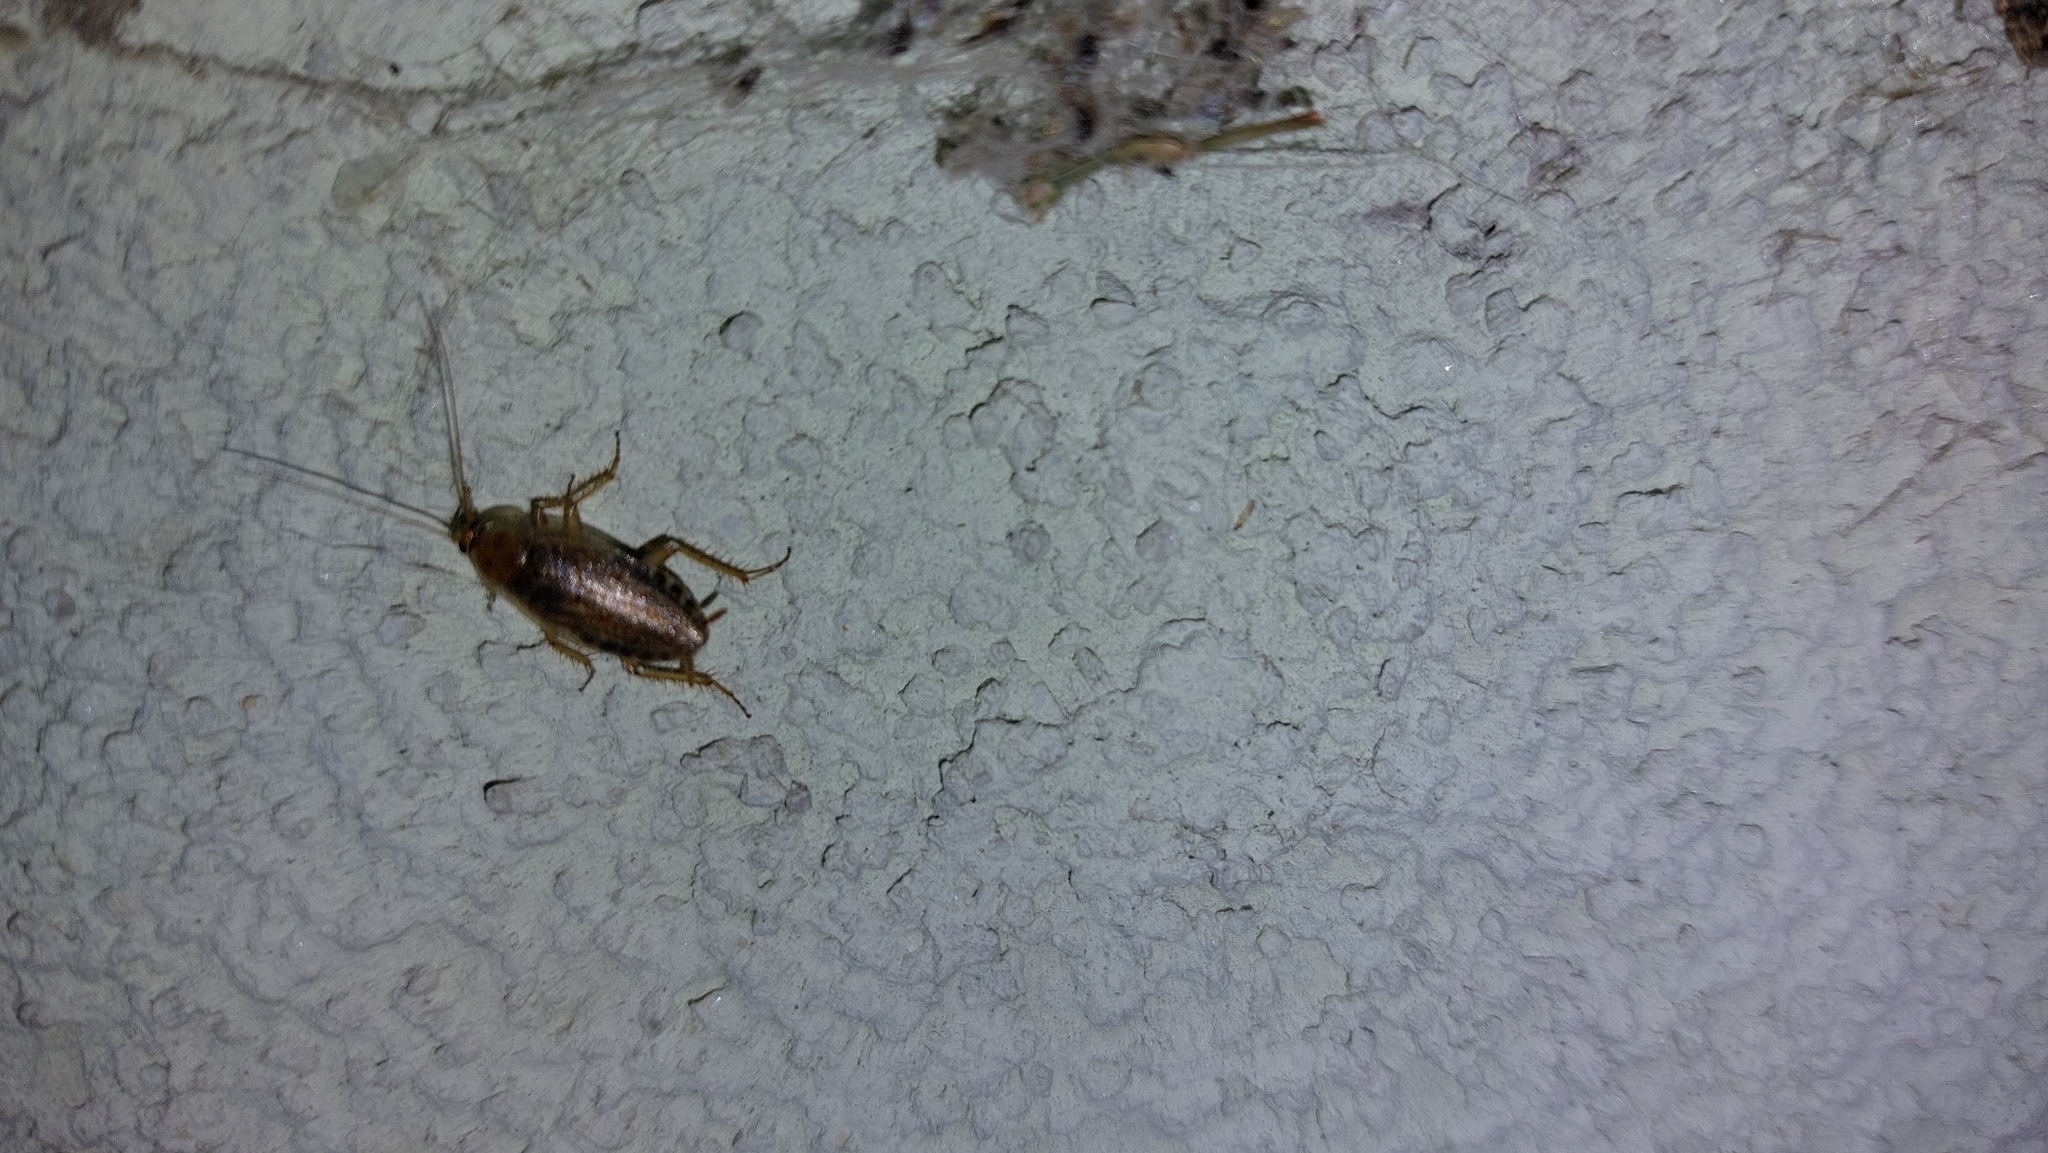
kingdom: Animalia
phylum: Arthropoda
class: Insecta
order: Blattodea
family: Ectobiidae
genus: Ectobius
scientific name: Ectobius vittiventris
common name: Garden cockroach
